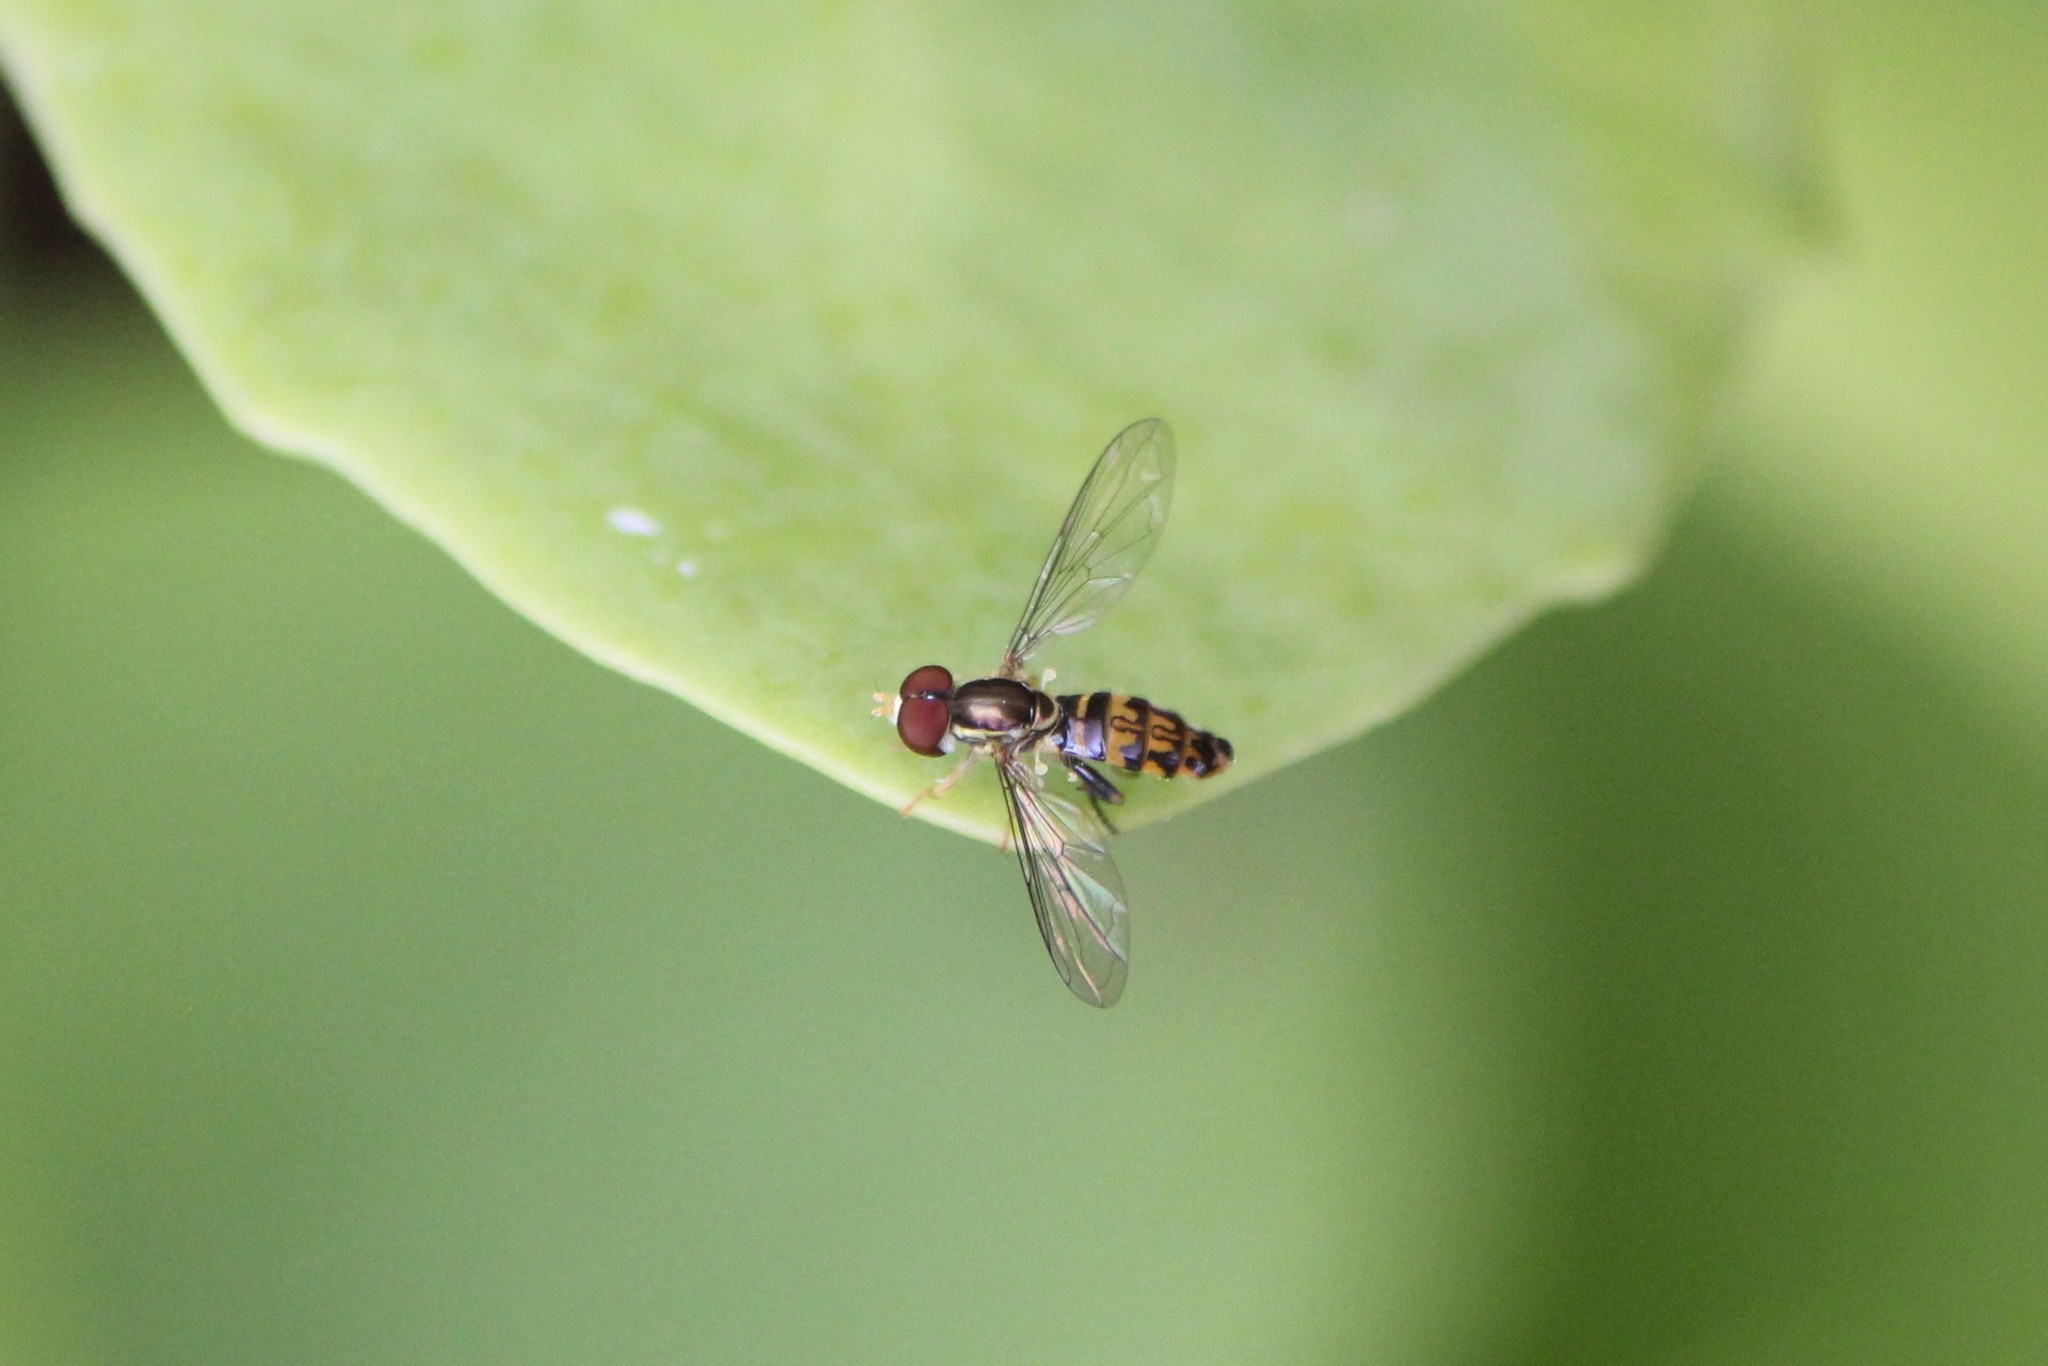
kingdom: Animalia
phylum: Arthropoda
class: Insecta
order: Diptera
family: Syrphidae
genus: Toxomerus
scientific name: Toxomerus geminatus
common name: Eastern calligrapher
